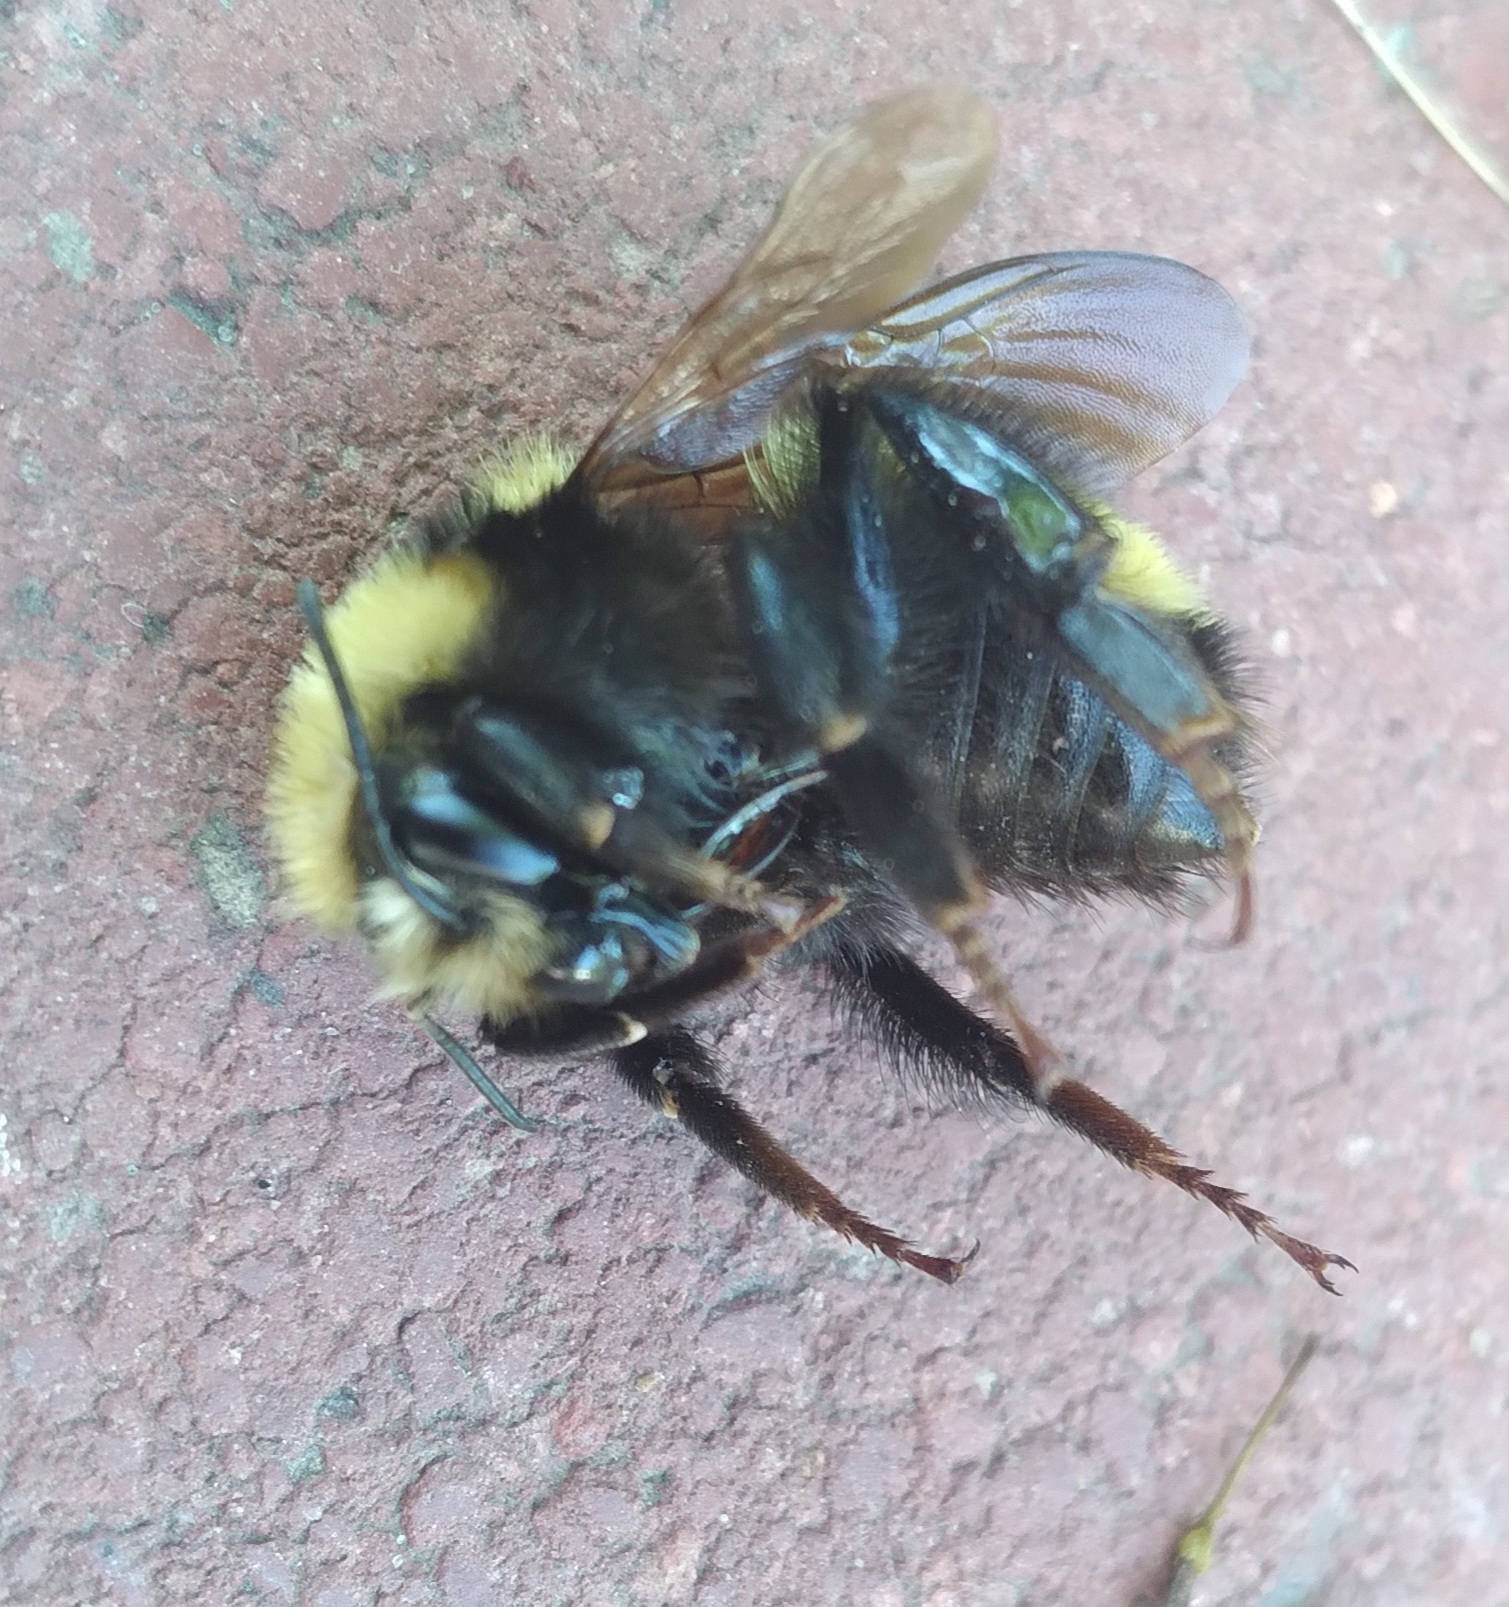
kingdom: Animalia
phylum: Arthropoda
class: Insecta
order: Hymenoptera
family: Apidae
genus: Bombus
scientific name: Bombus borealis
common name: Northern amber bumble bee
